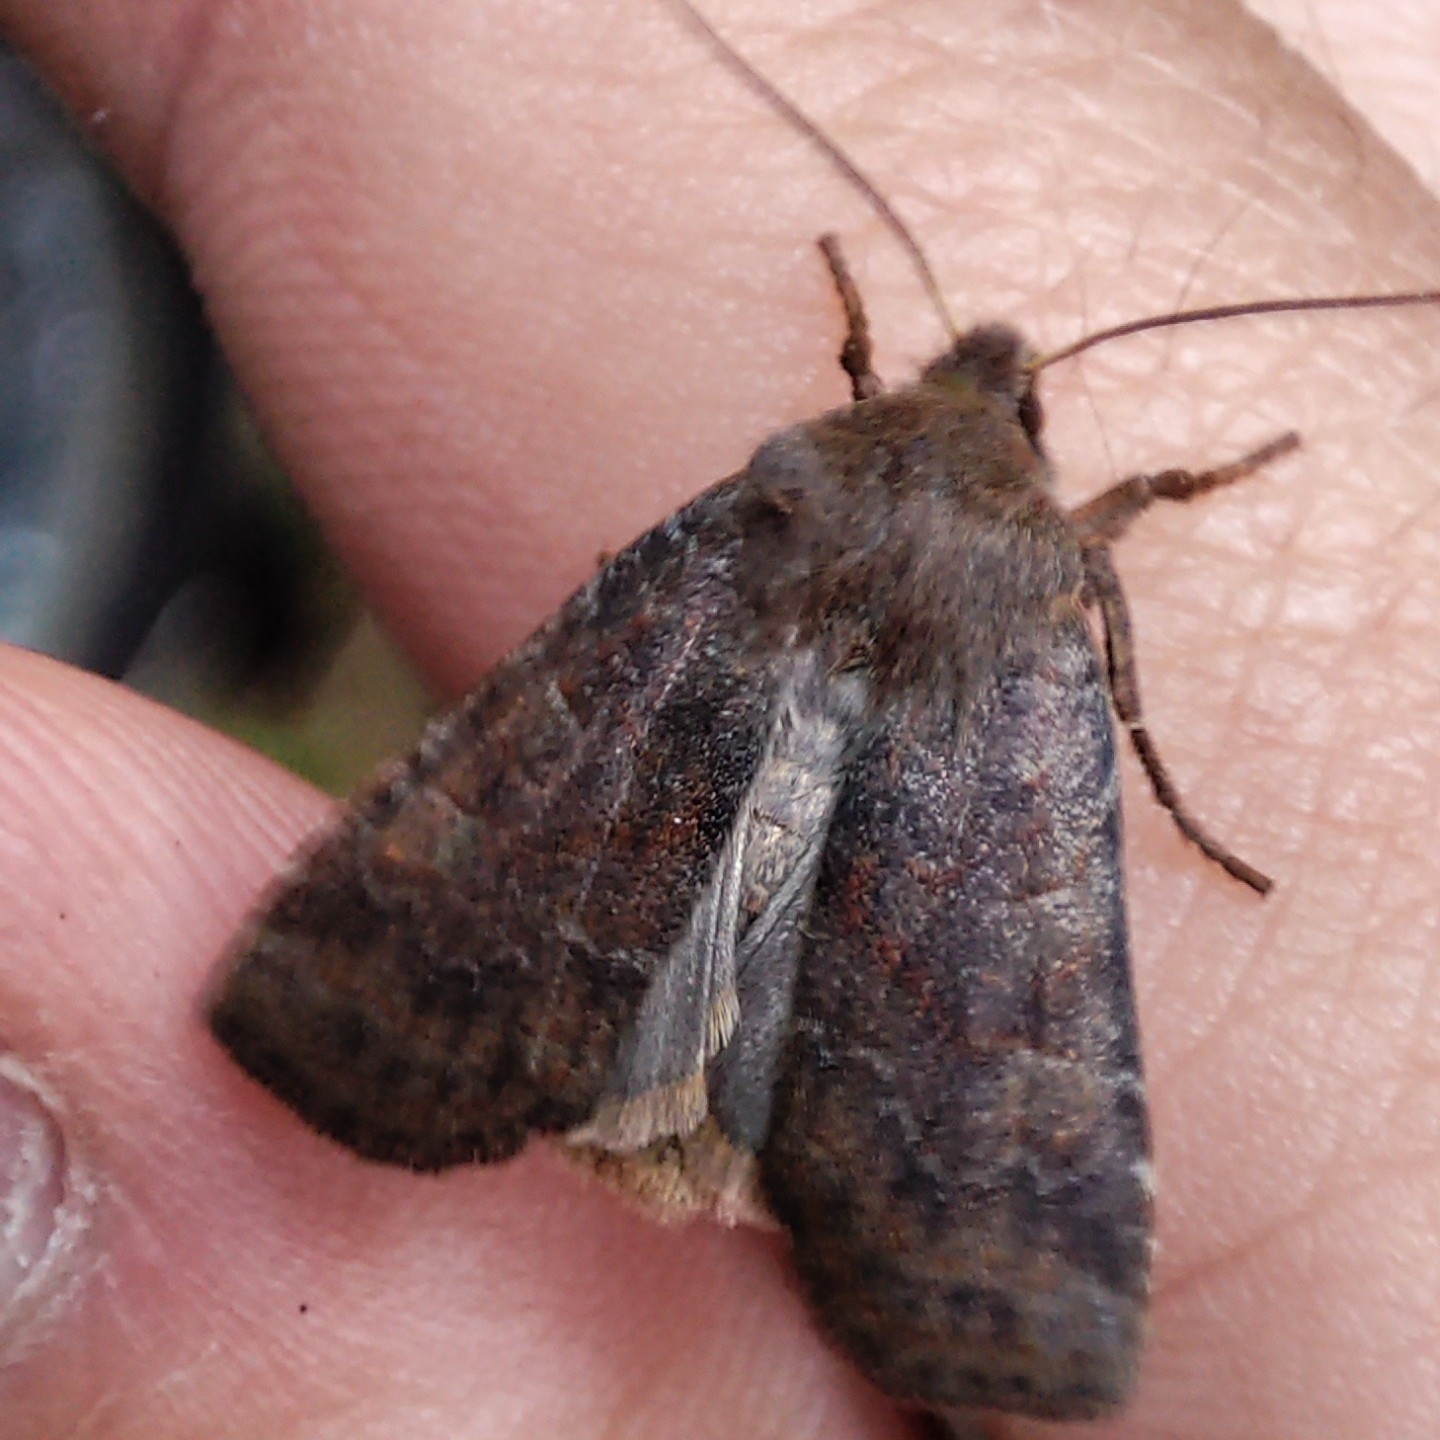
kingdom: Animalia
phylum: Arthropoda
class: Insecta
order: Lepidoptera
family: Noctuidae
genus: Conistra
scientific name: Conistra vaccinii
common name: Chestnut
